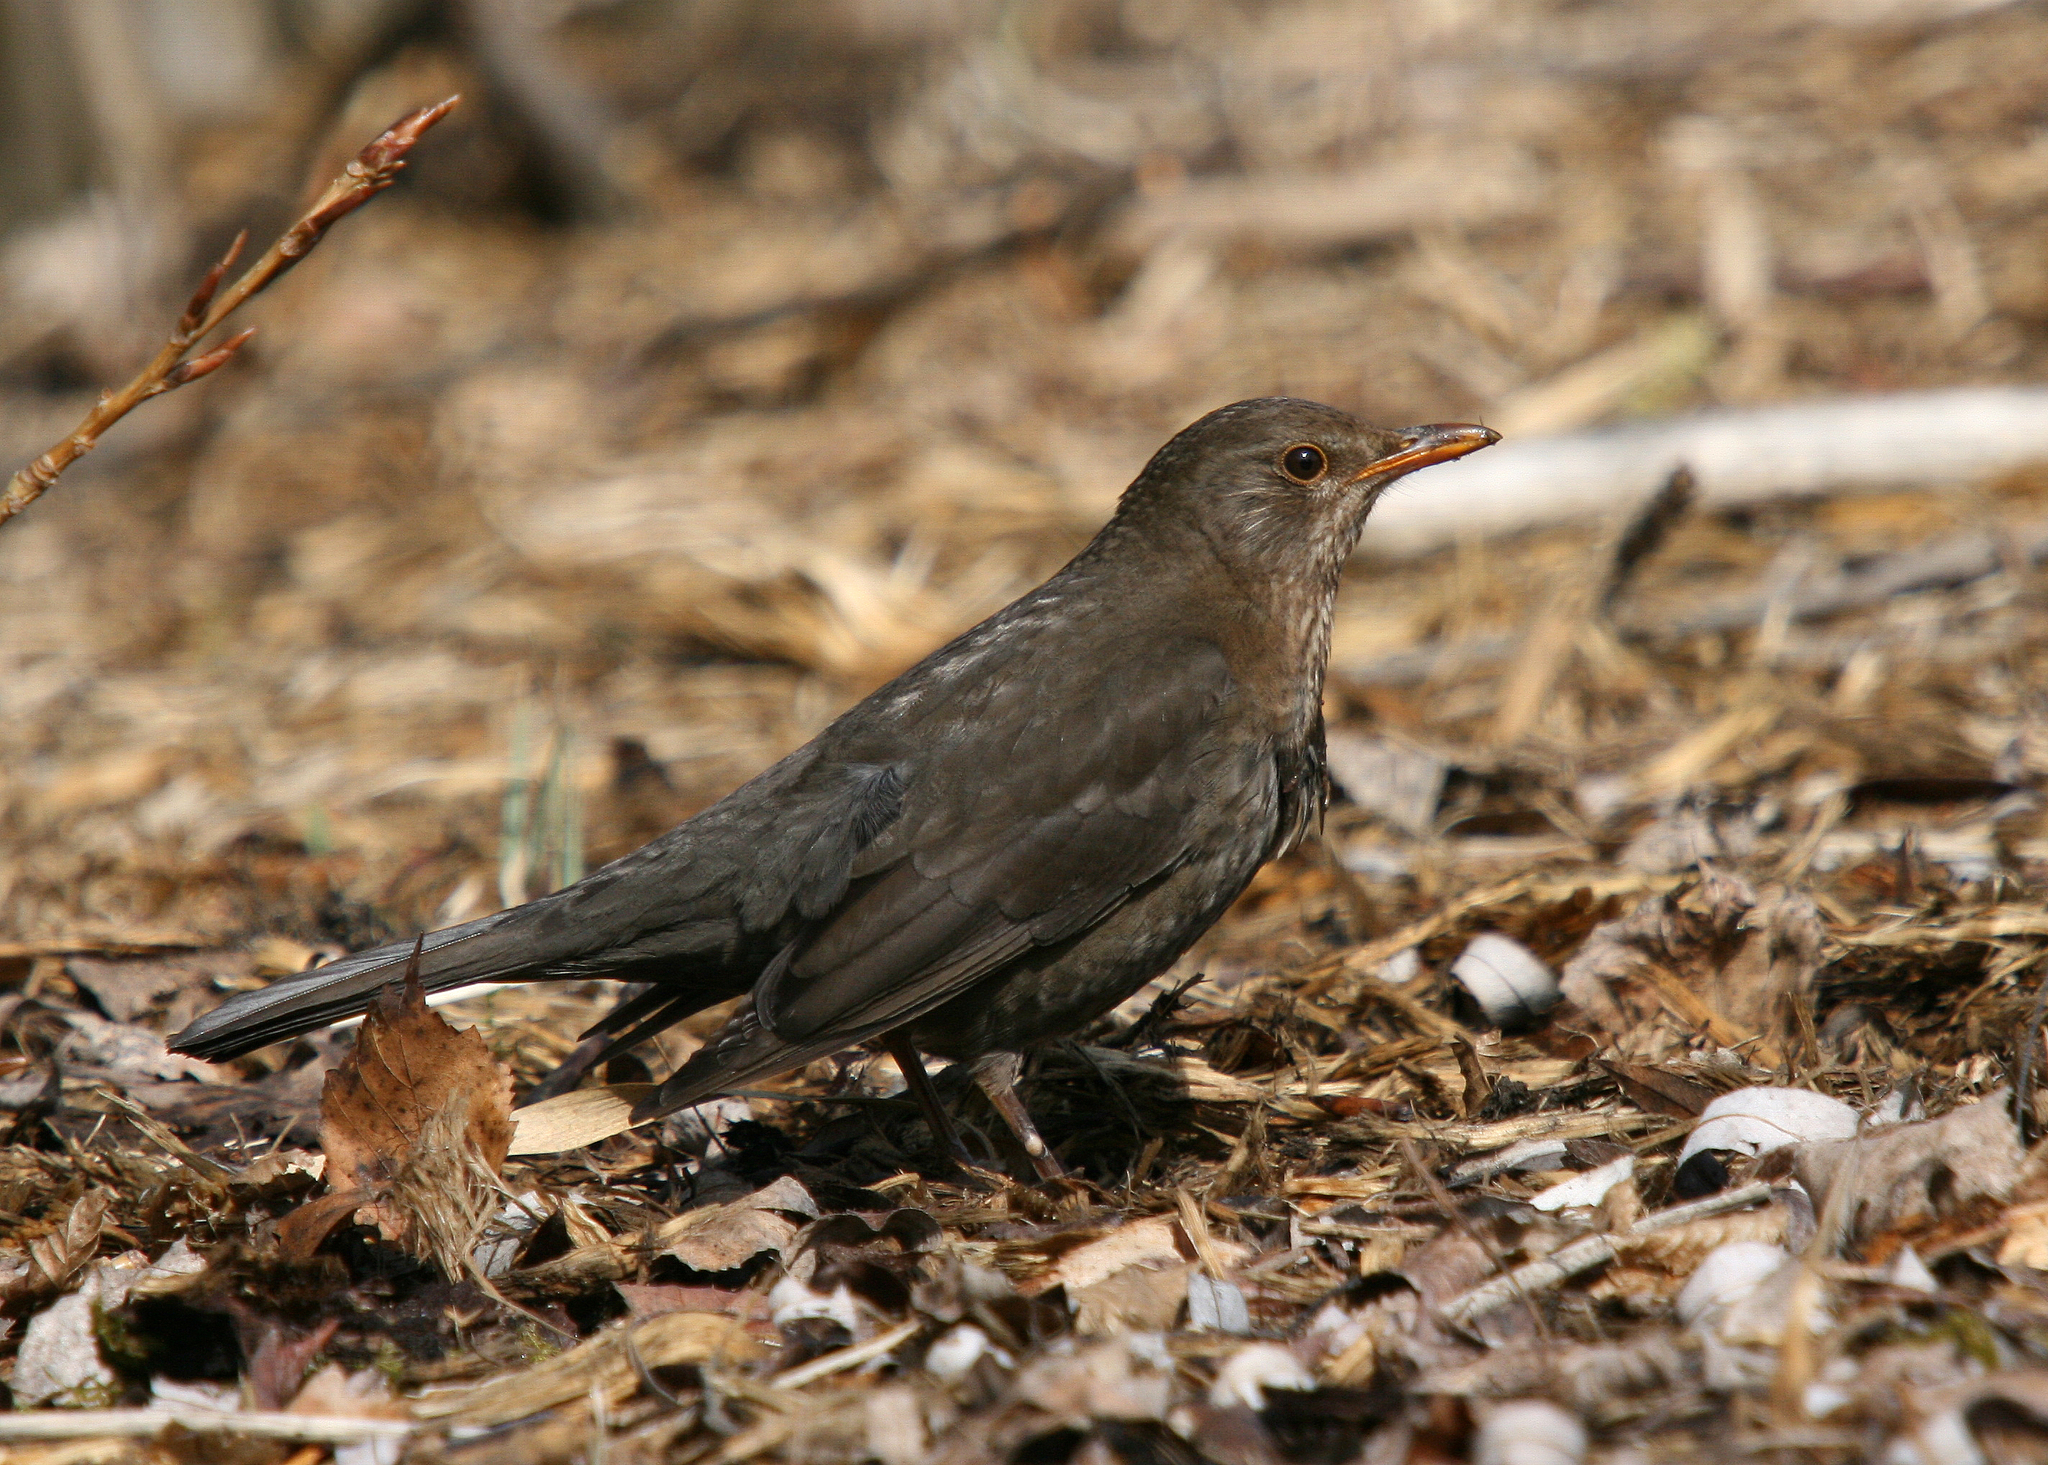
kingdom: Animalia
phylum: Chordata
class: Aves
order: Passeriformes
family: Turdidae
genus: Turdus
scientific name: Turdus merula
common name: Common blackbird
